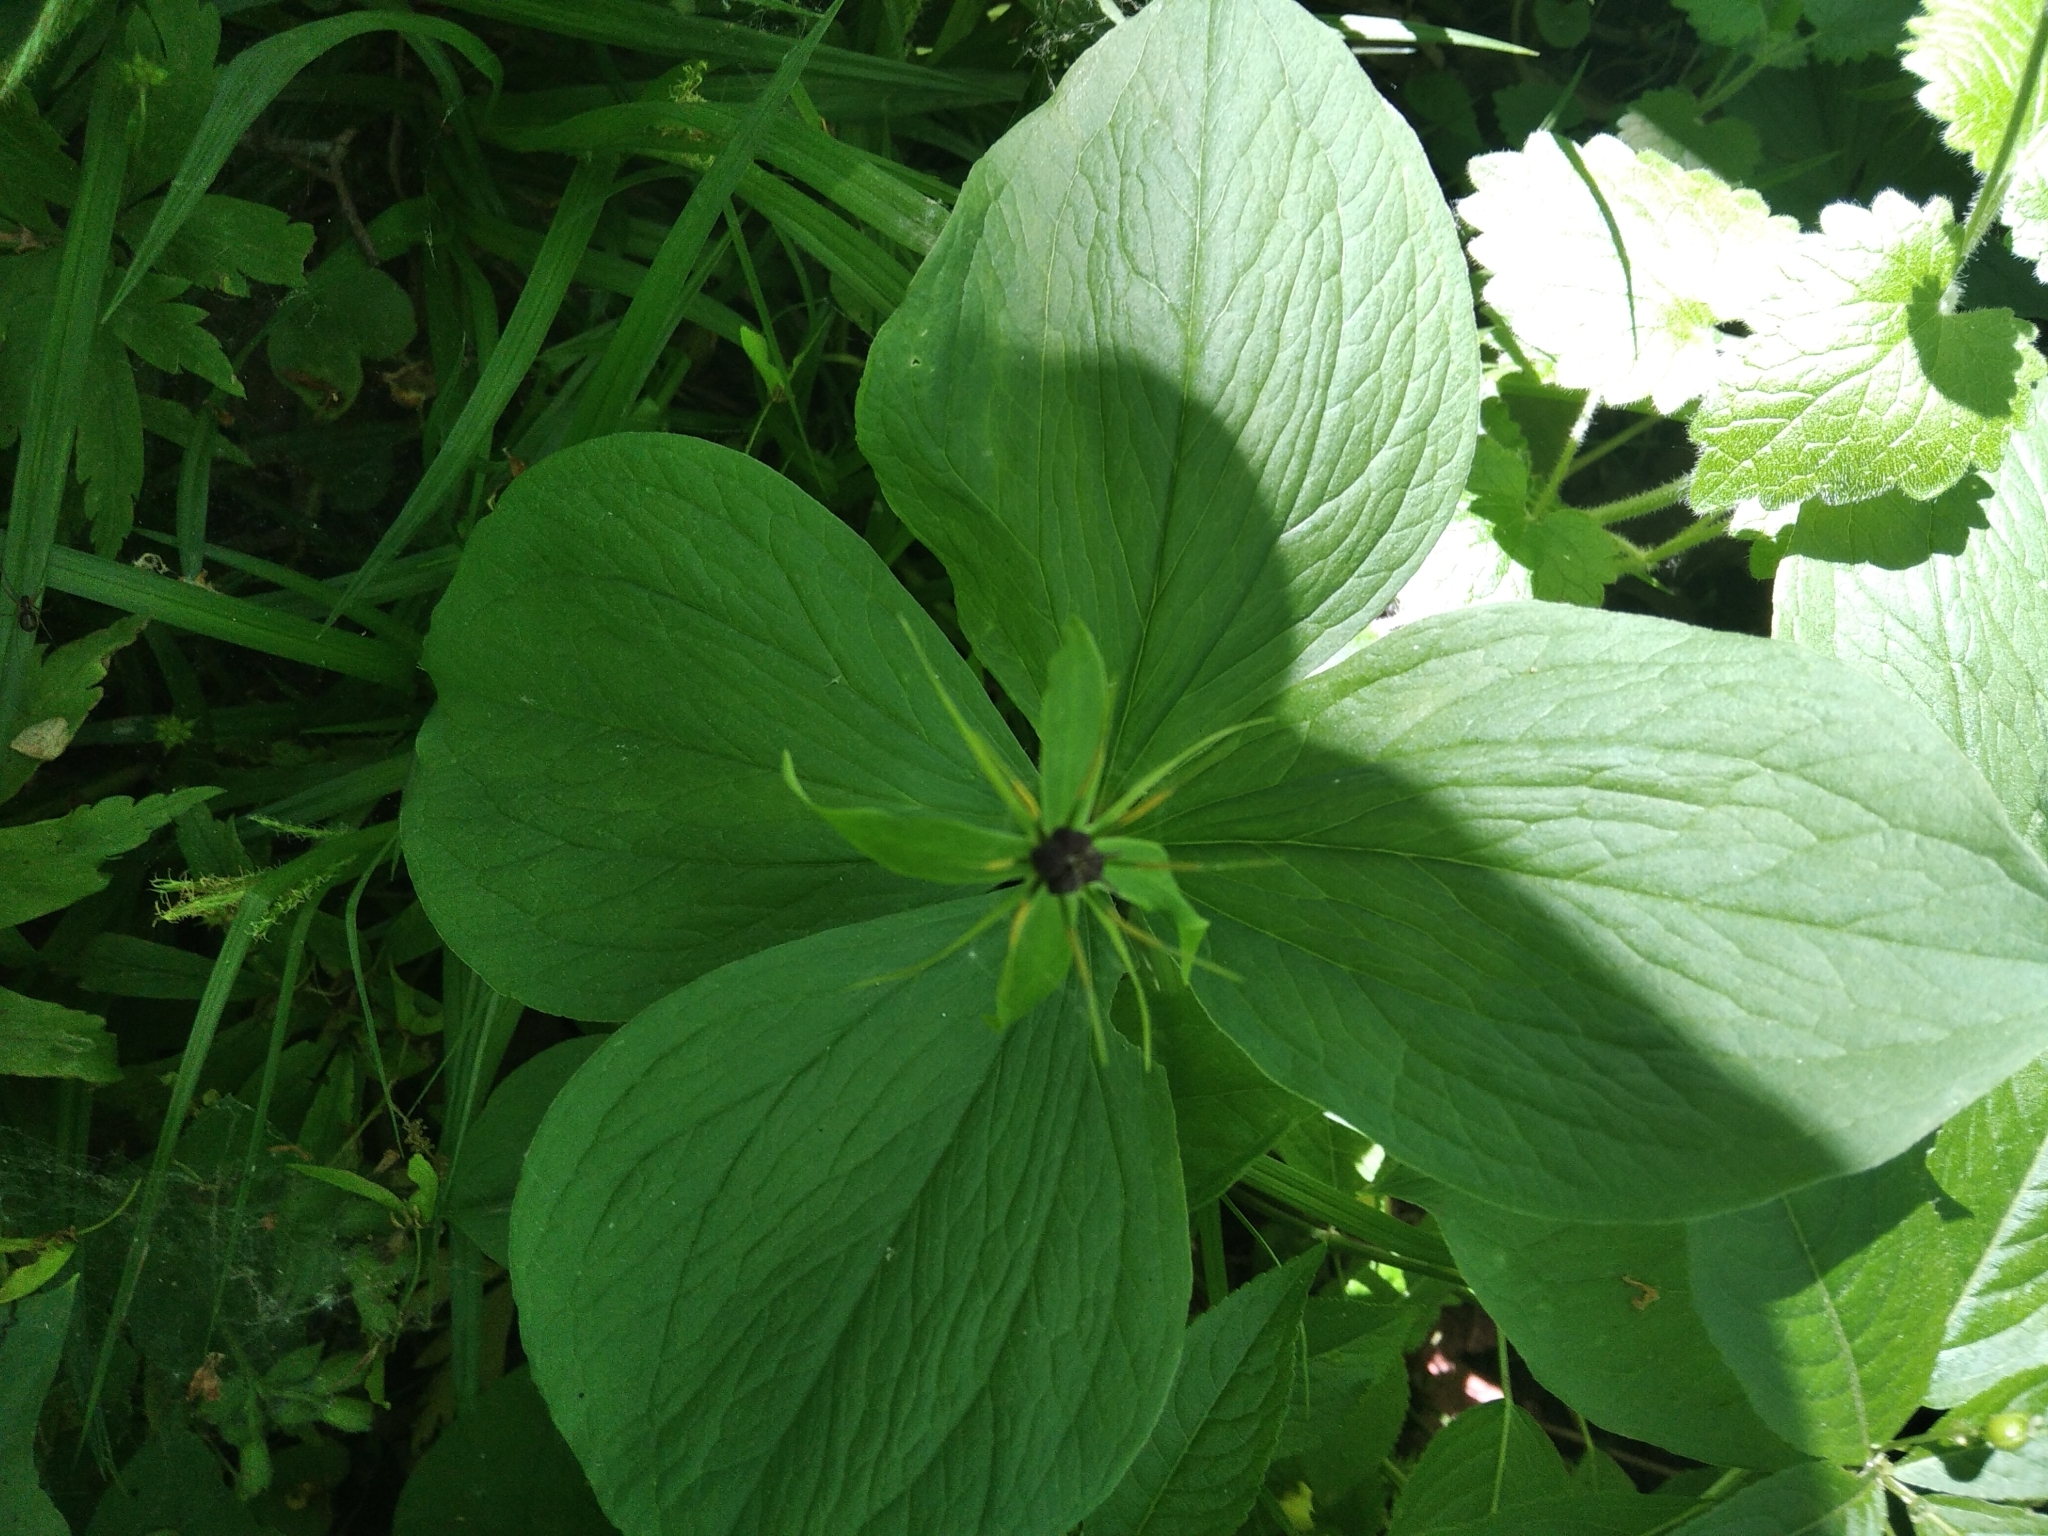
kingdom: Plantae
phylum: Tracheophyta
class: Liliopsida
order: Liliales
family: Melanthiaceae
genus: Paris
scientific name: Paris quadrifolia
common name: Herb-paris
